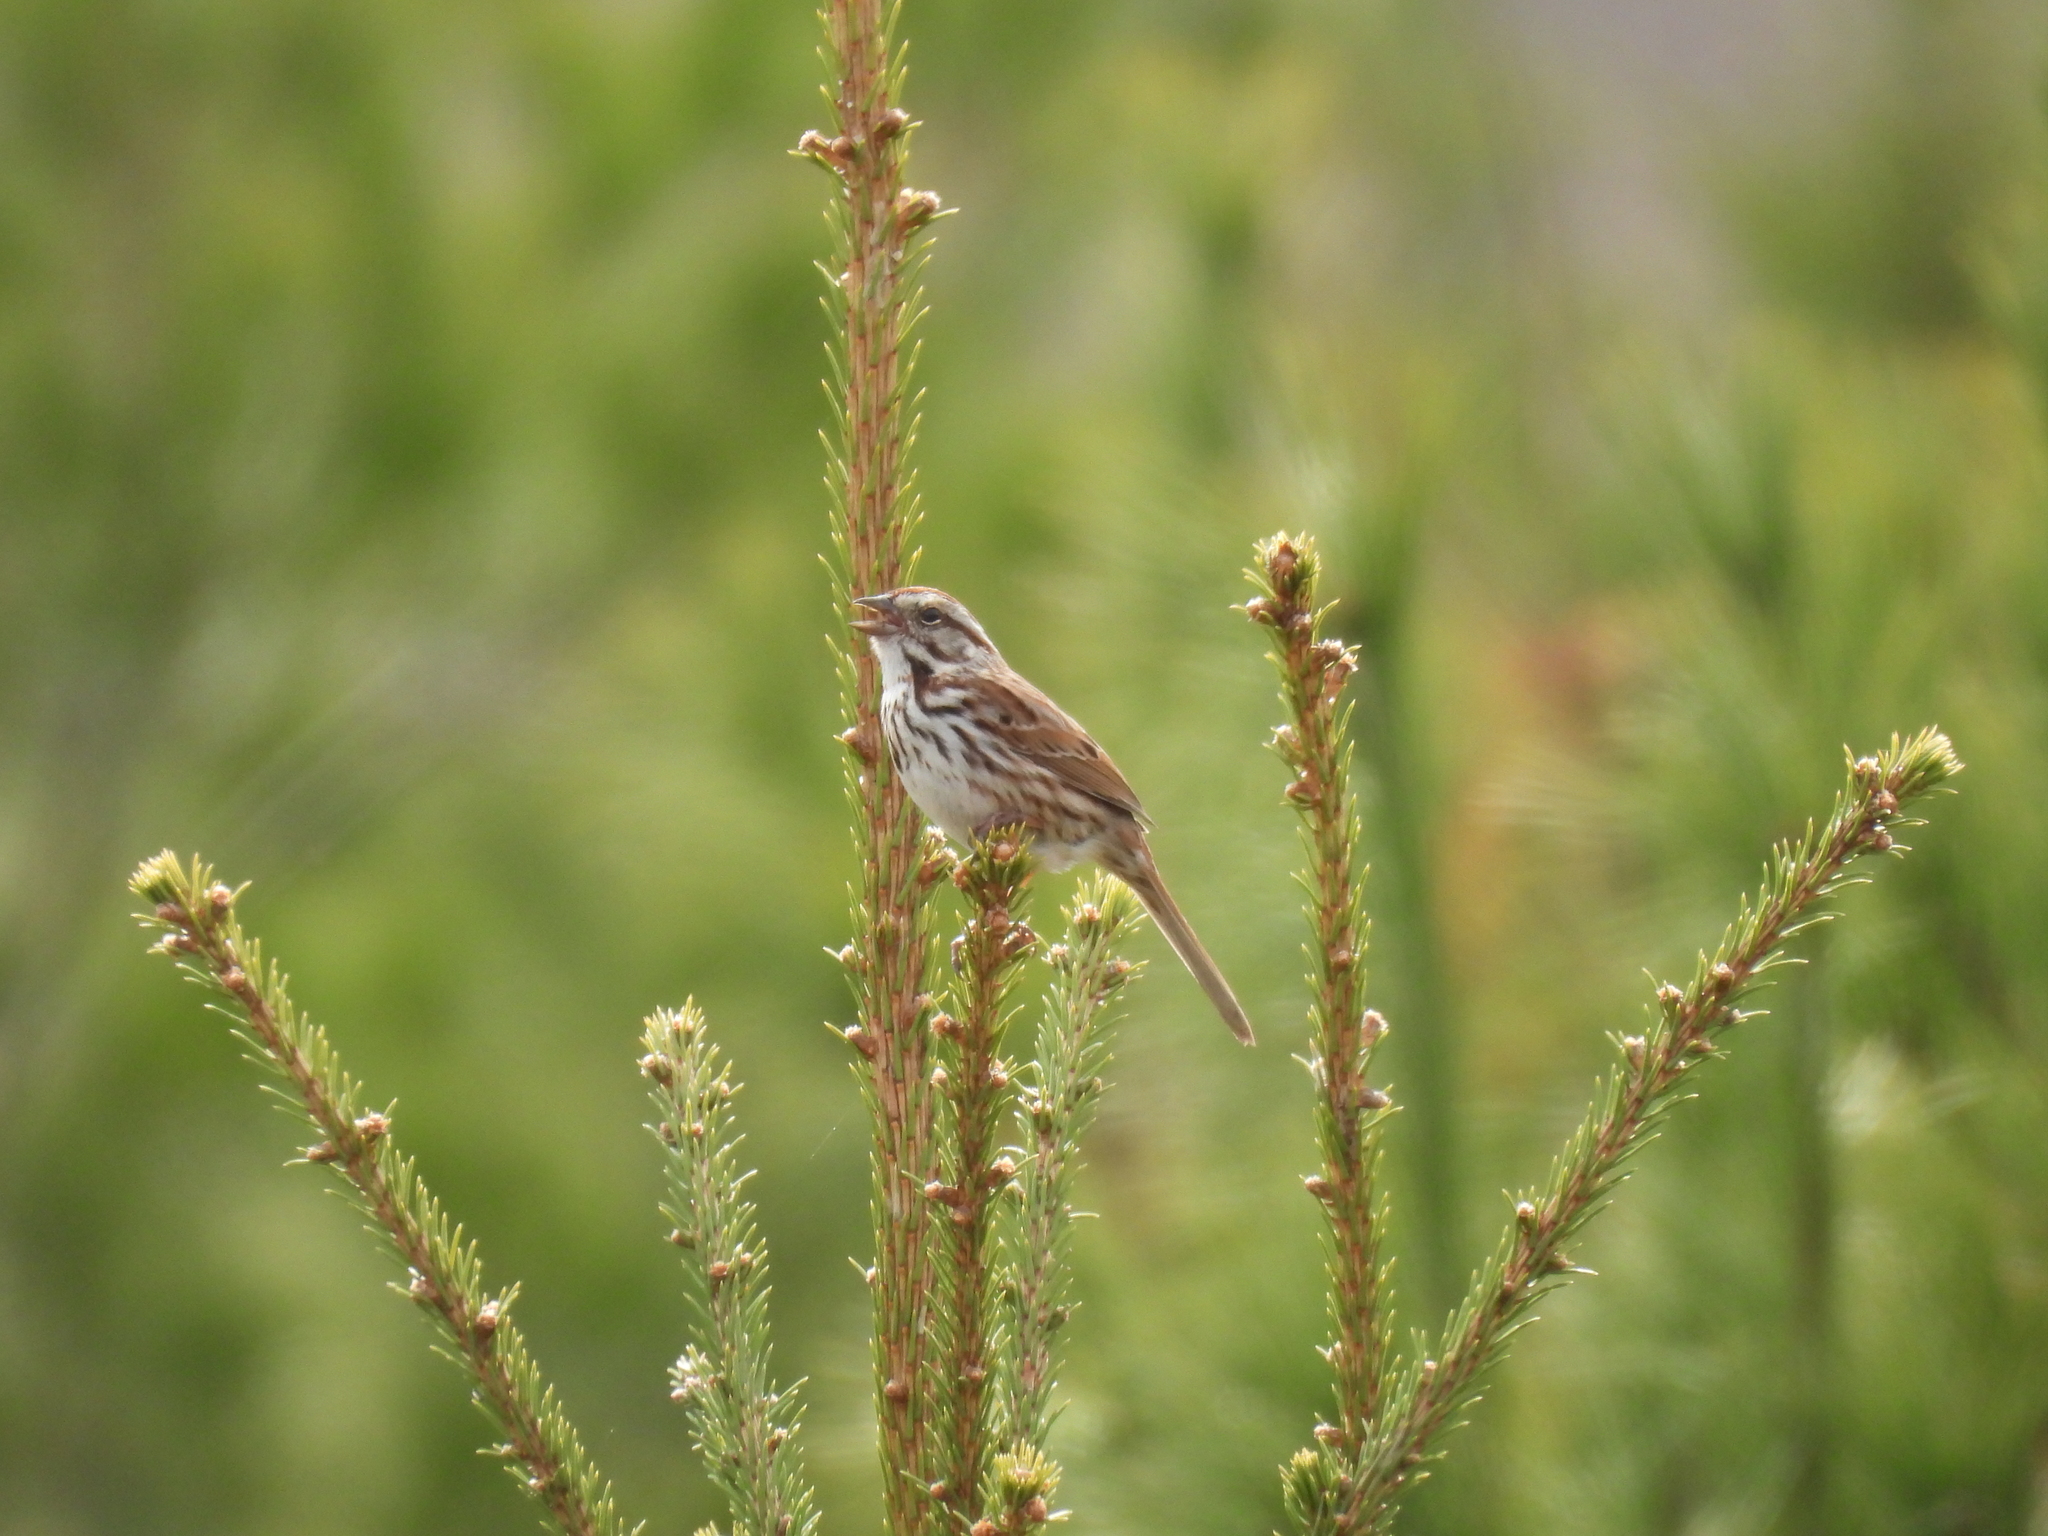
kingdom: Animalia
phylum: Chordata
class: Aves
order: Passeriformes
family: Passerellidae
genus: Melospiza
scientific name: Melospiza melodia
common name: Song sparrow
